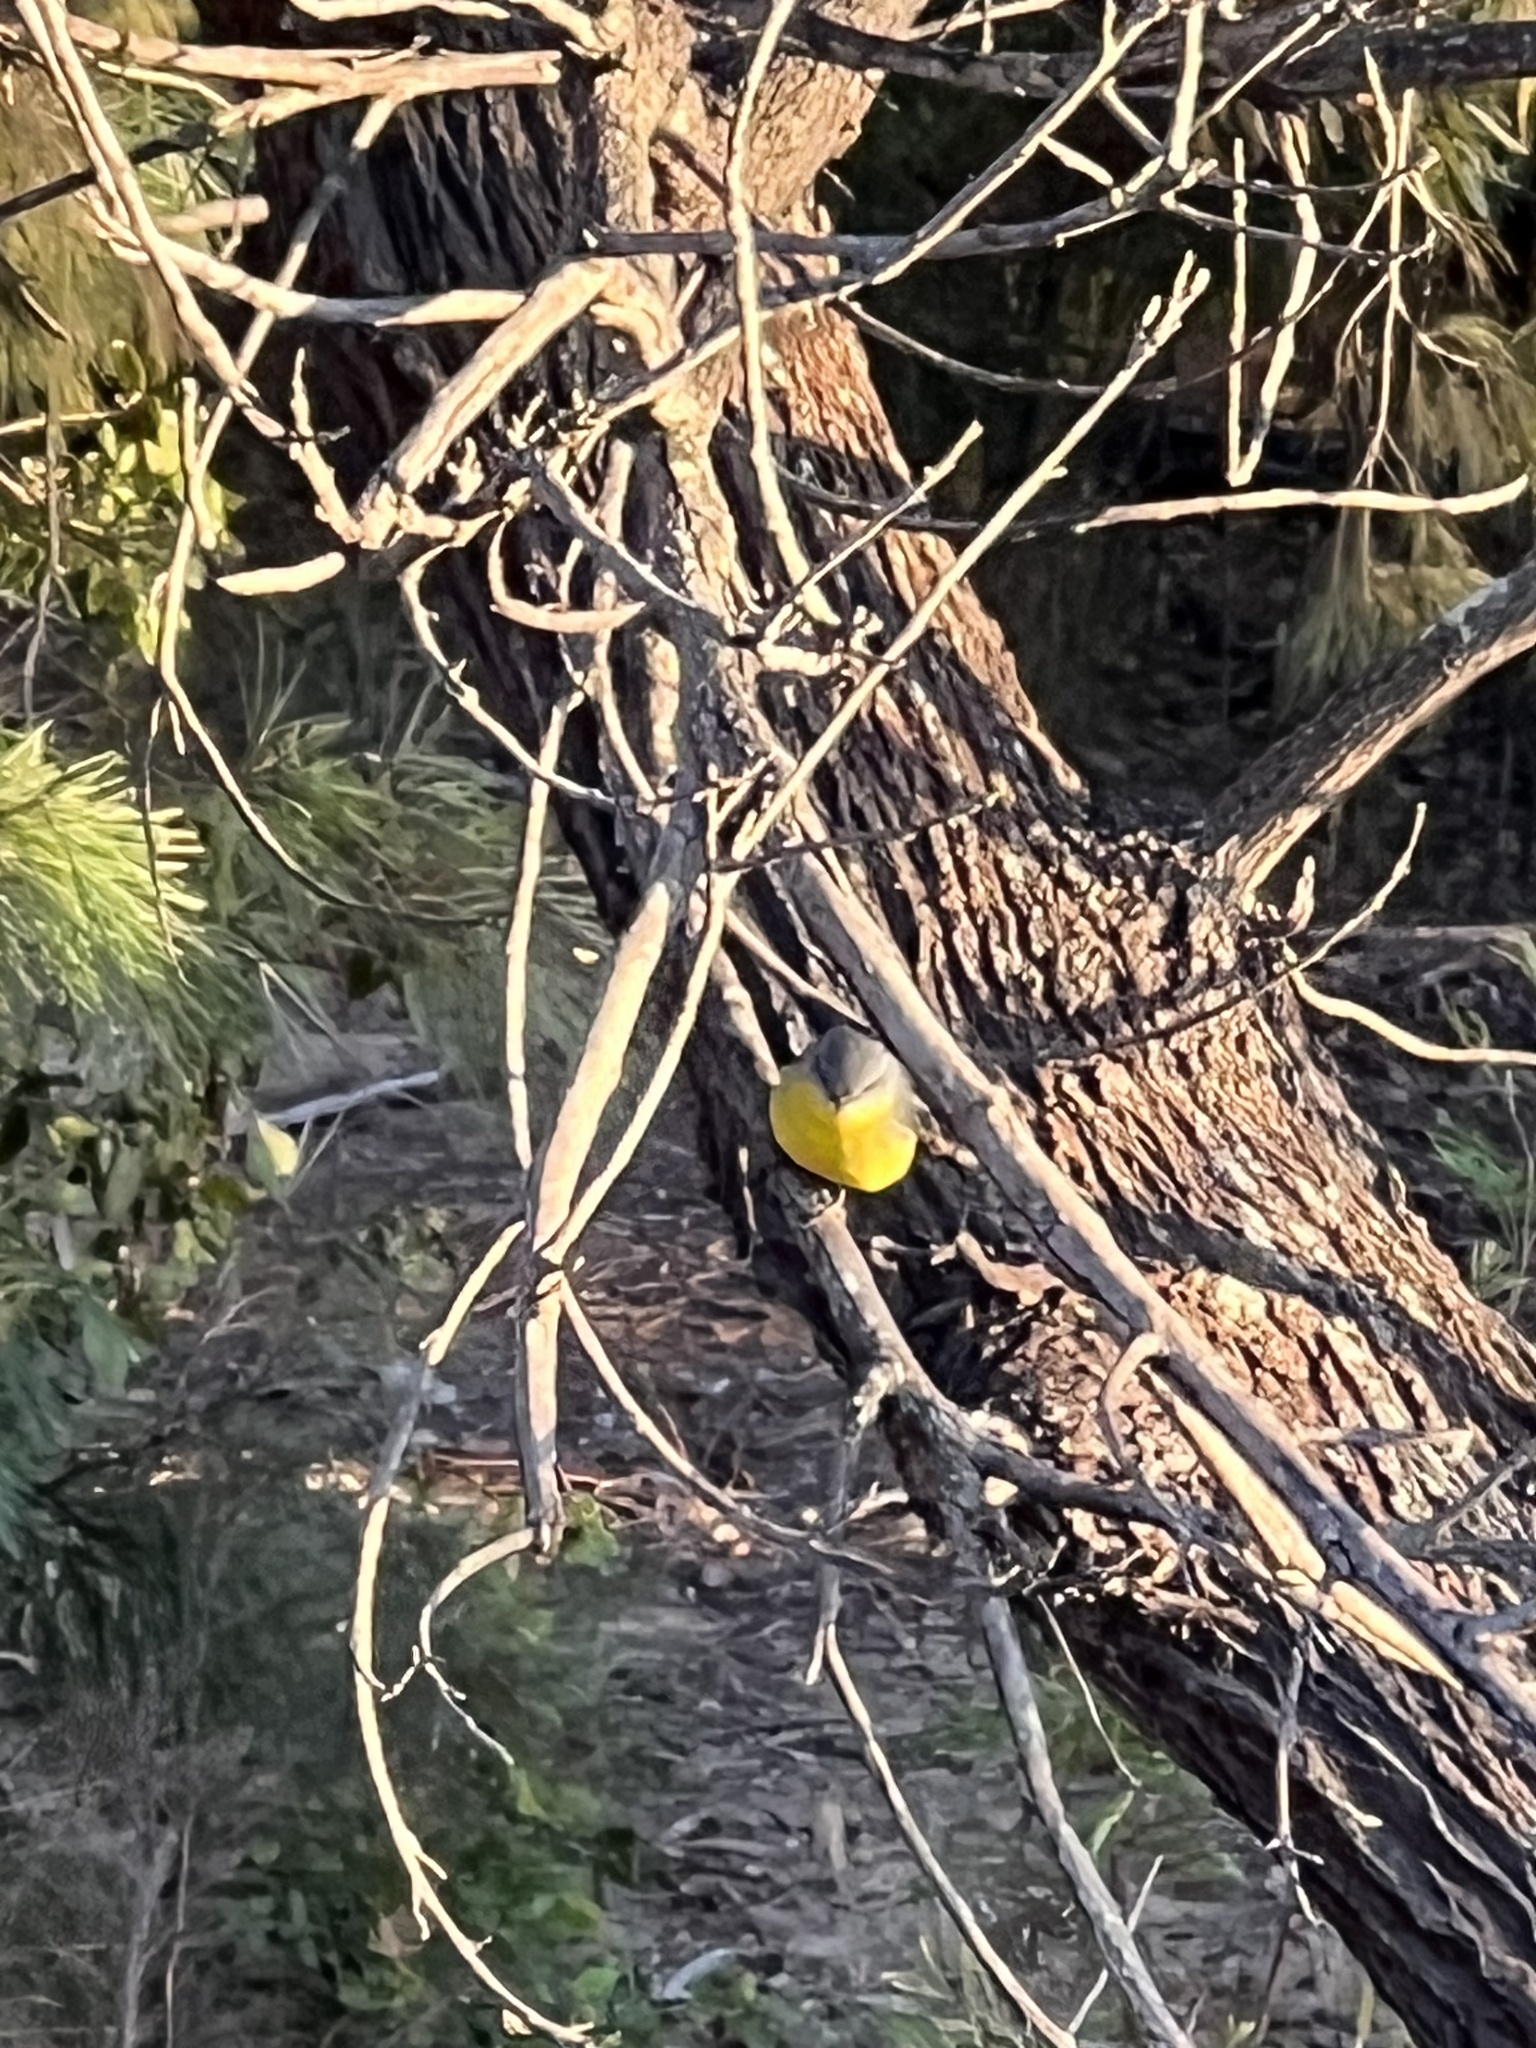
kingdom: Animalia
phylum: Chordata
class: Aves
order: Passeriformes
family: Petroicidae
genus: Eopsaltria
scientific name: Eopsaltria australis
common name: Eastern yellow robin
